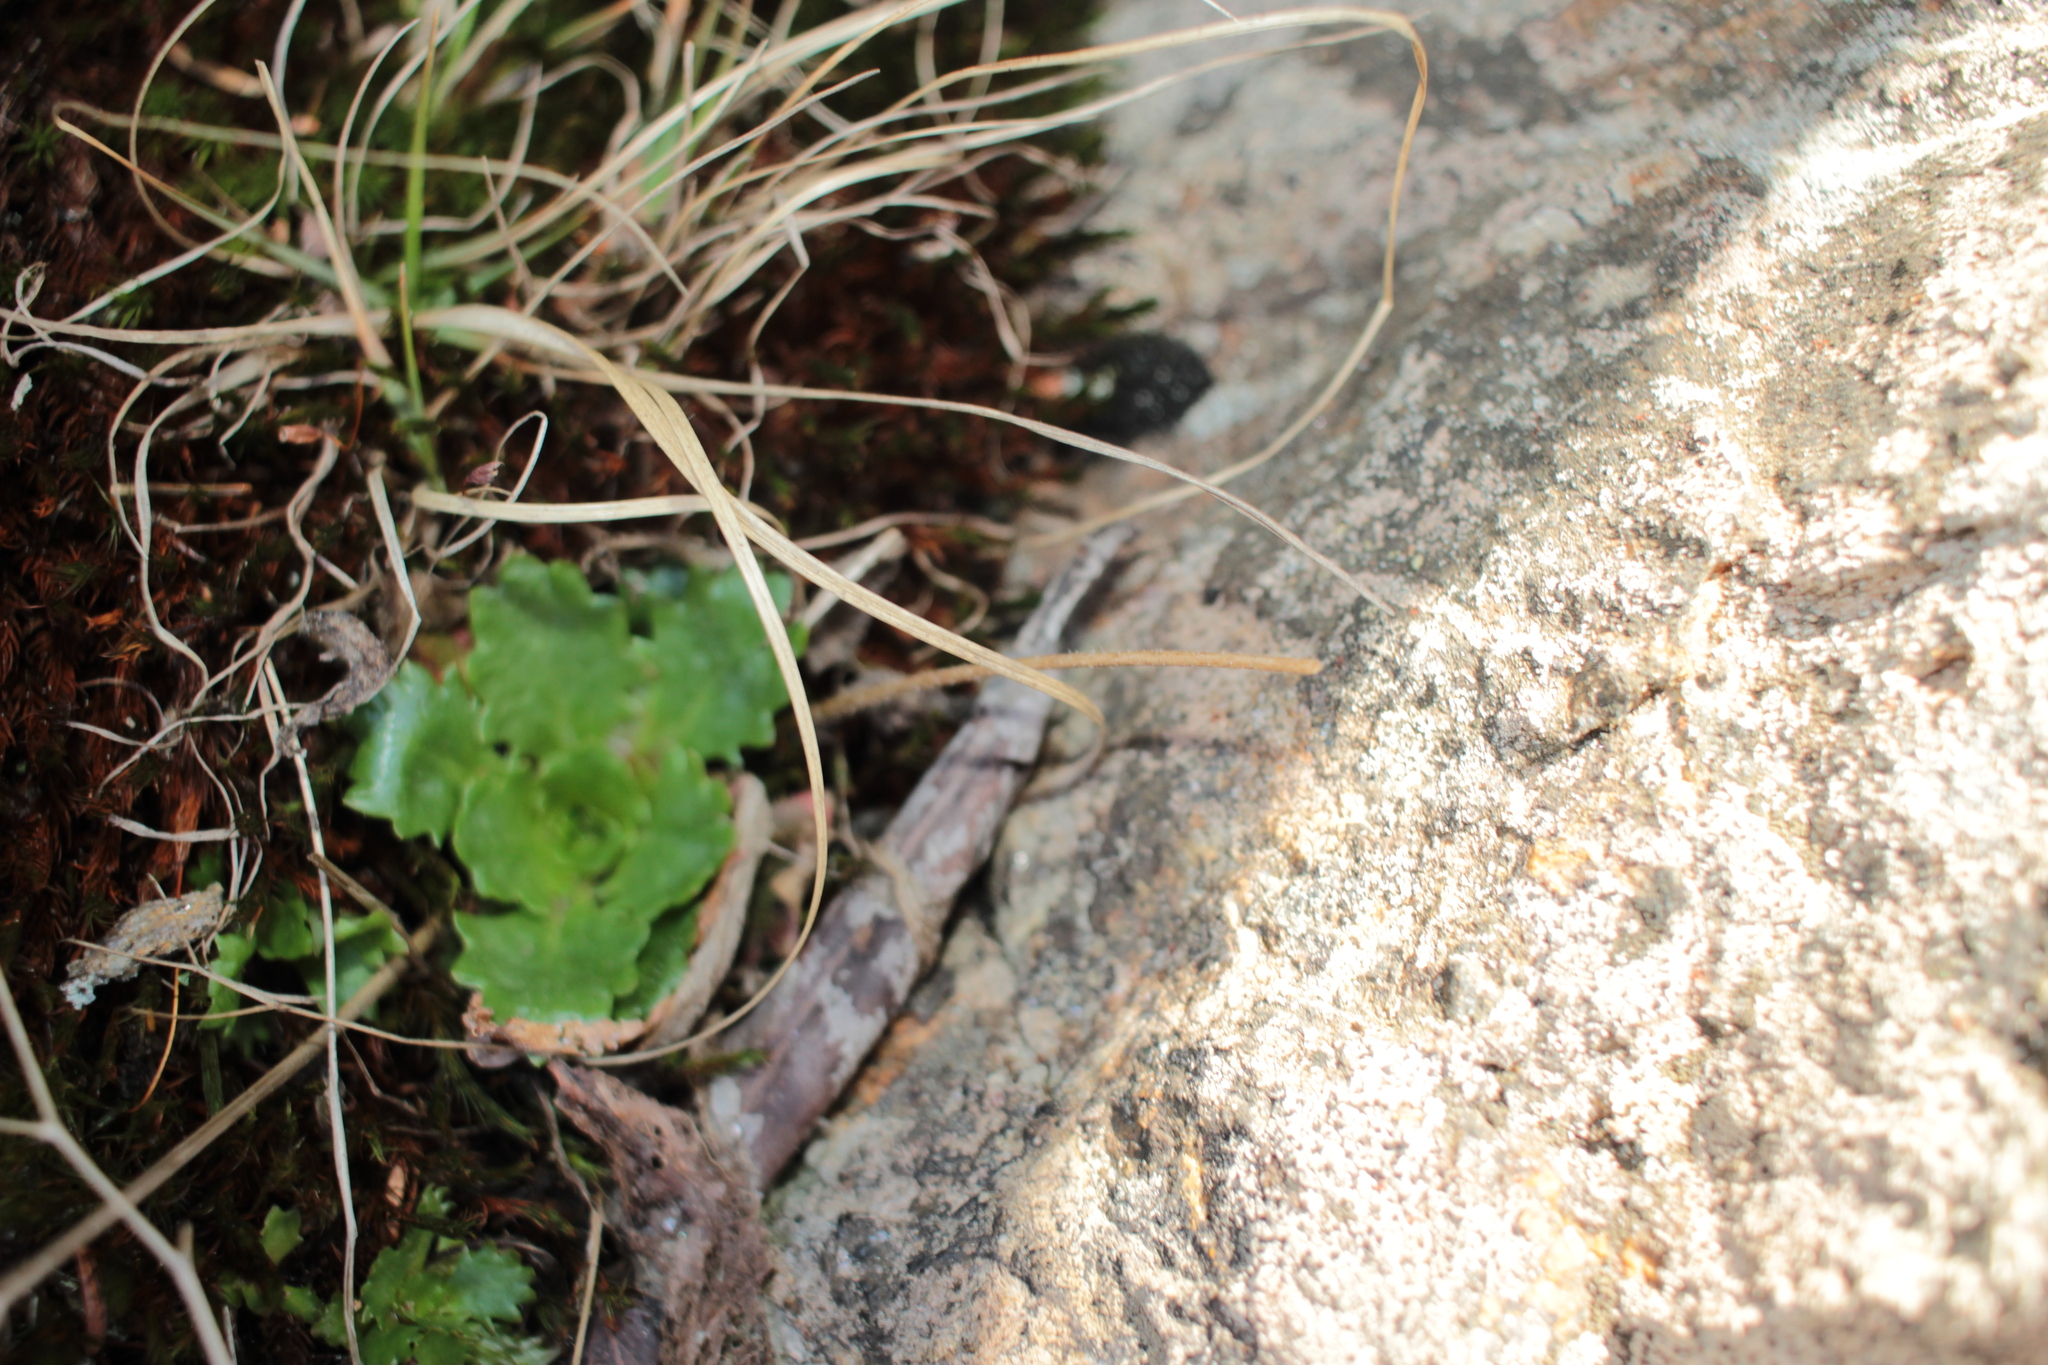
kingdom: Plantae
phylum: Tracheophyta
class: Magnoliopsida
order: Saxifragales
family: Saxifragaceae
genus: Micranthes
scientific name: Micranthes petiolaris
